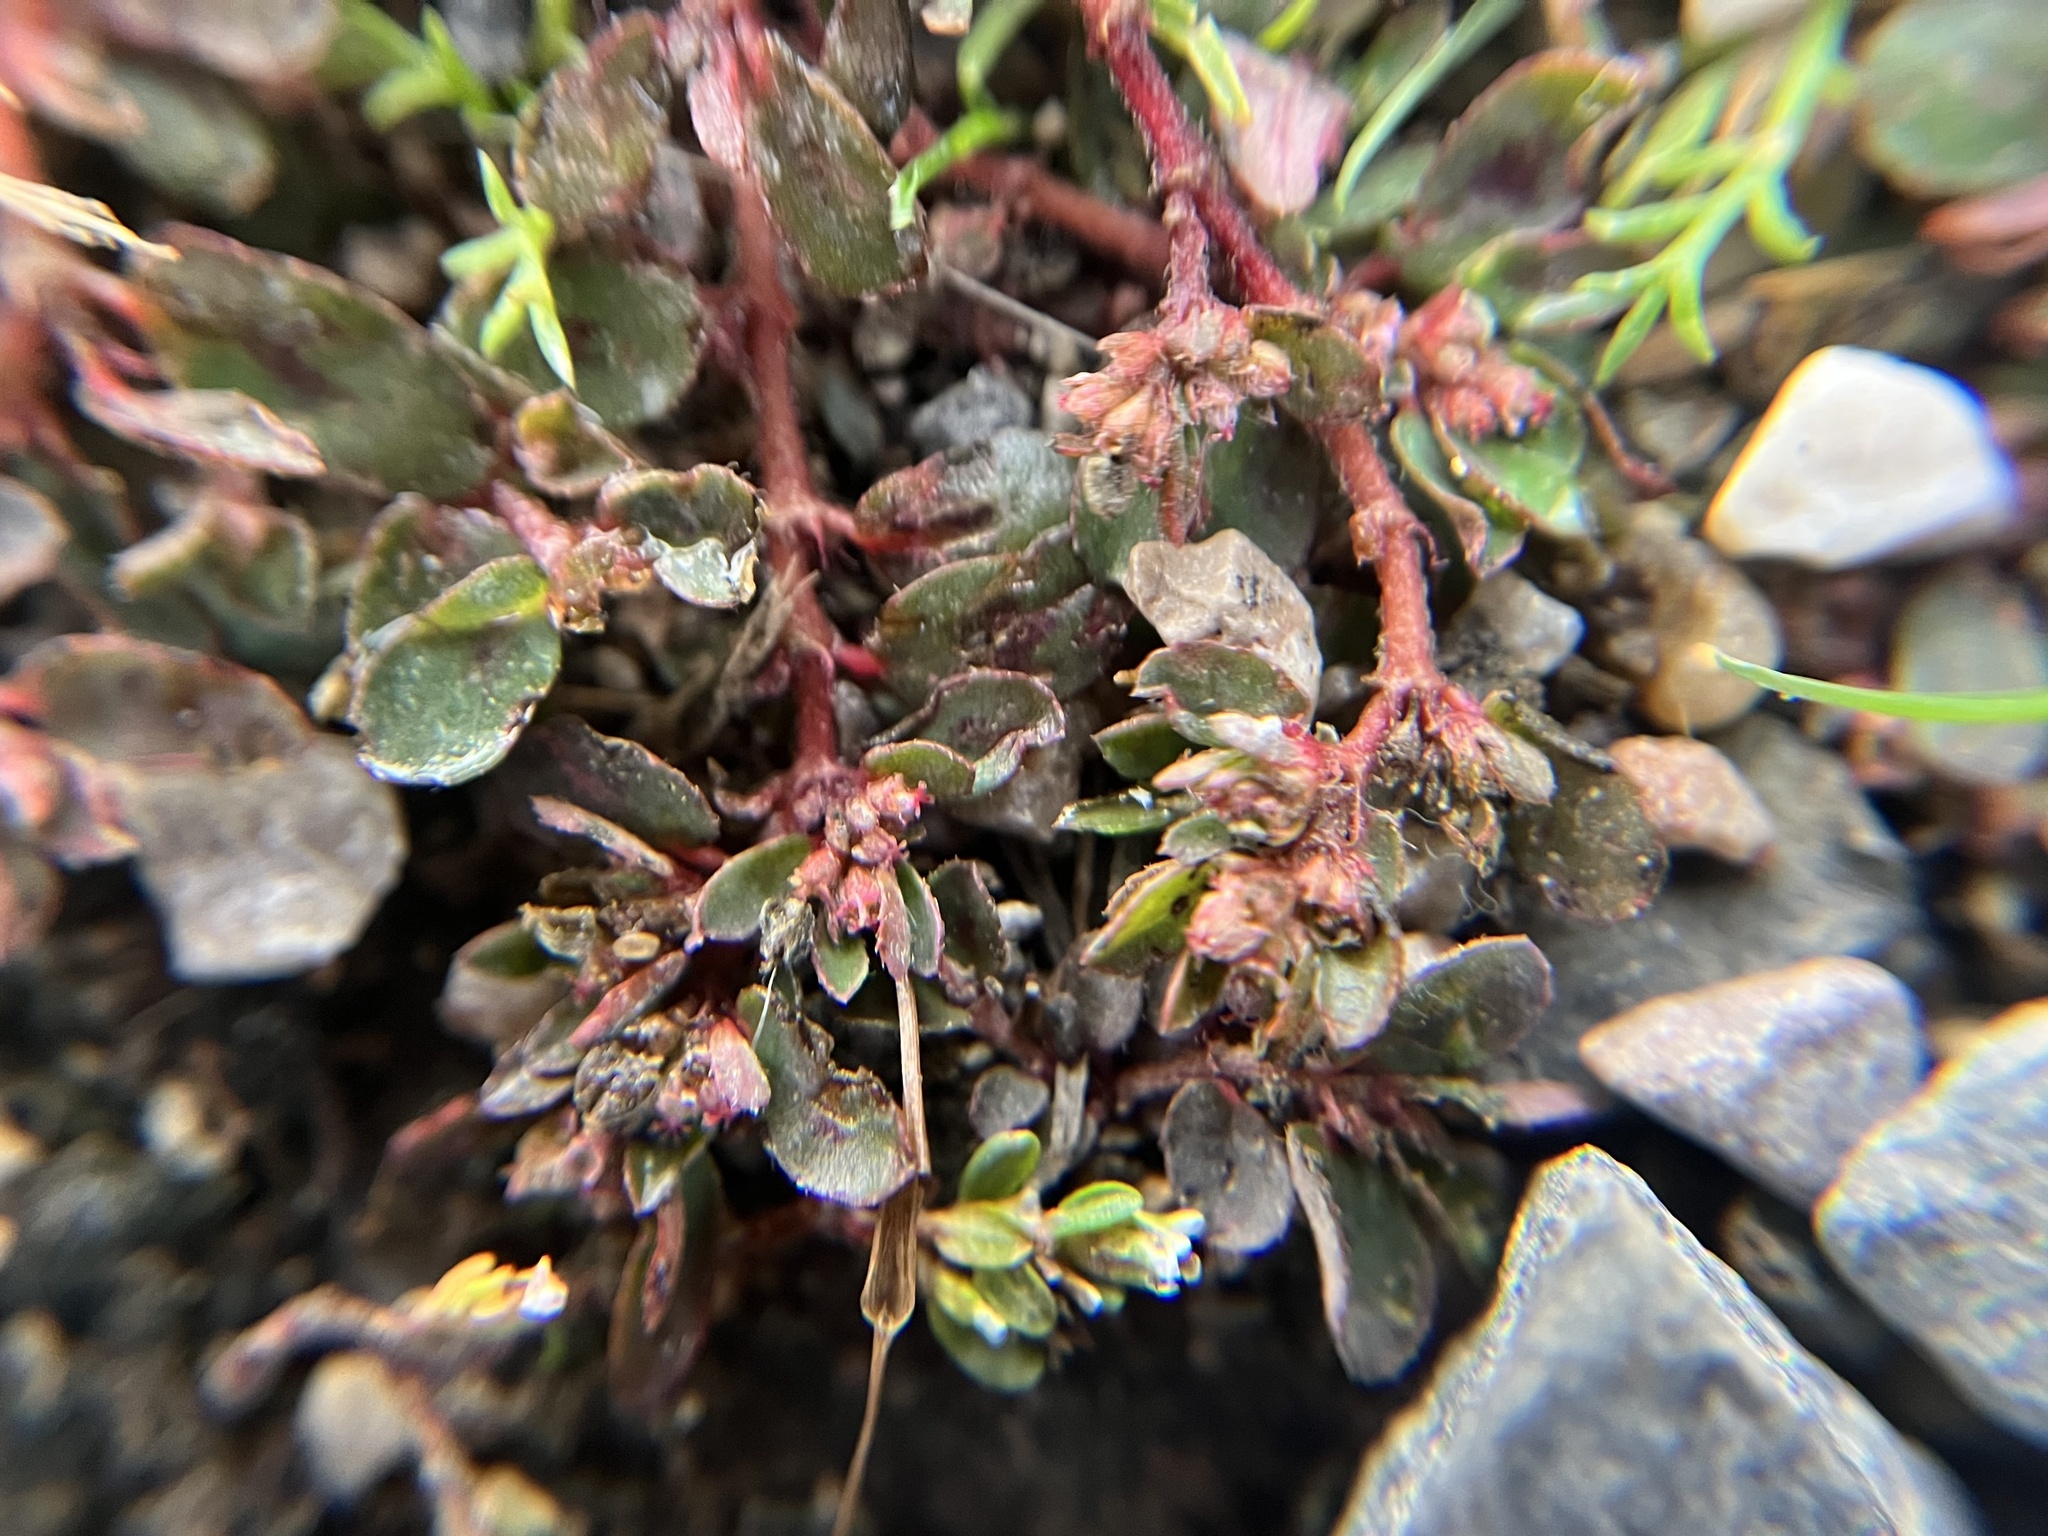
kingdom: Plantae
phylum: Tracheophyta
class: Magnoliopsida
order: Malpighiales
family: Euphorbiaceae
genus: Euphorbia
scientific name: Euphorbia maculata
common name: Spotted spurge
